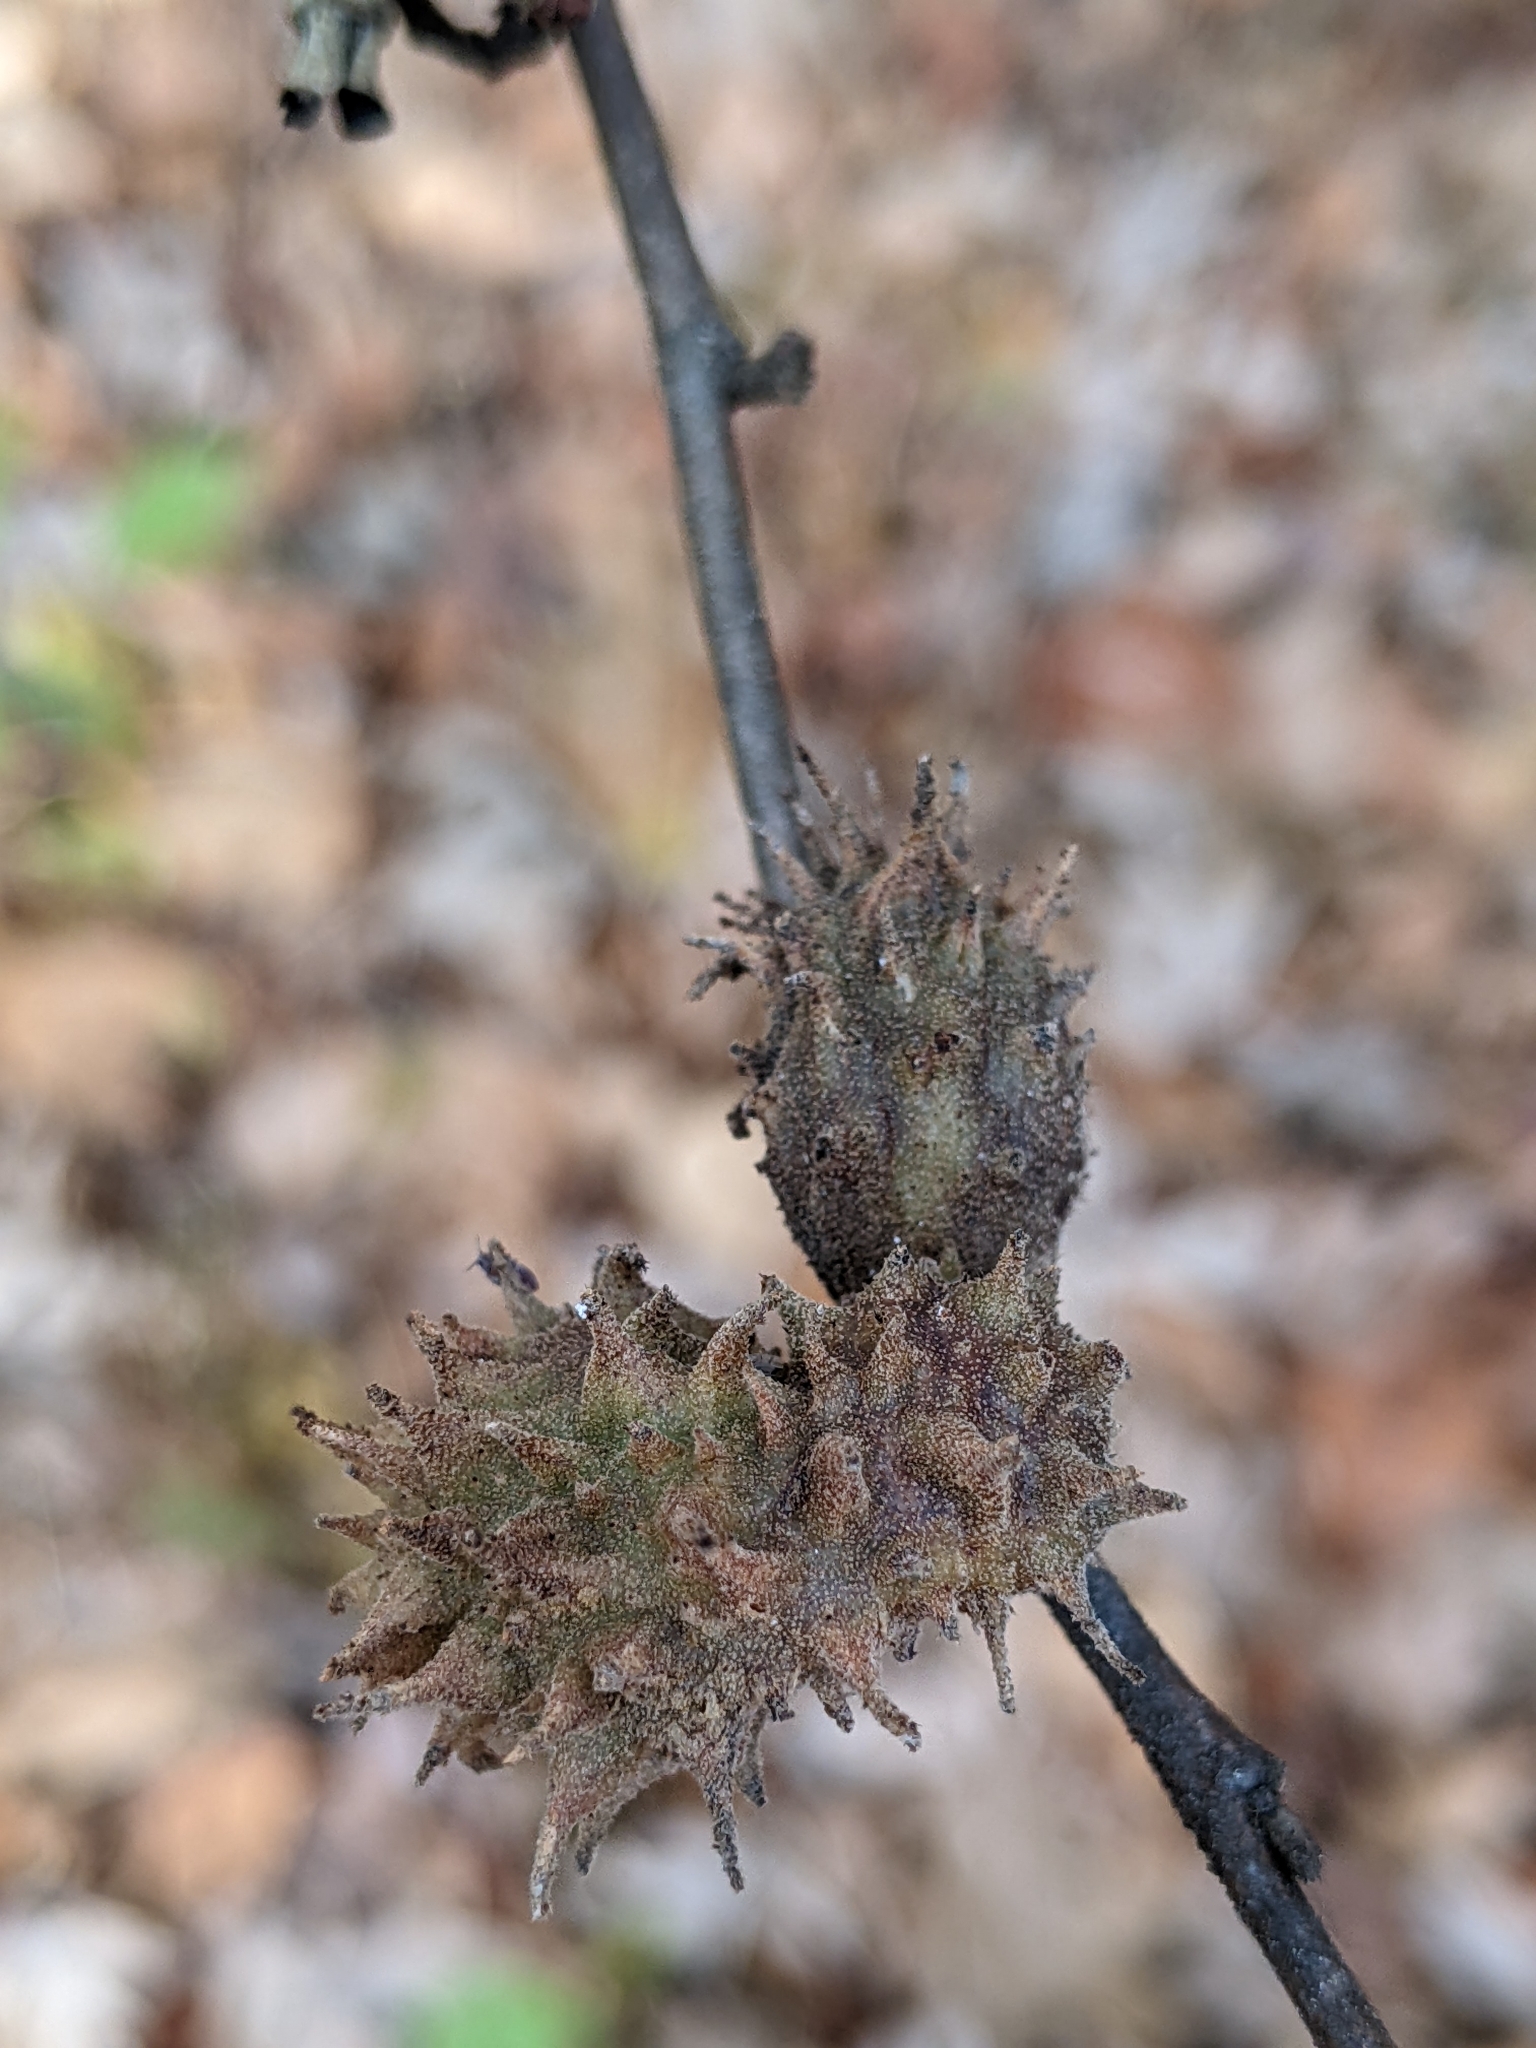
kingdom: Animalia
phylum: Arthropoda
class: Insecta
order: Hemiptera
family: Aphididae
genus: Hamamelistes
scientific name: Hamamelistes spinosus
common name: Witch hazel gall aphid
